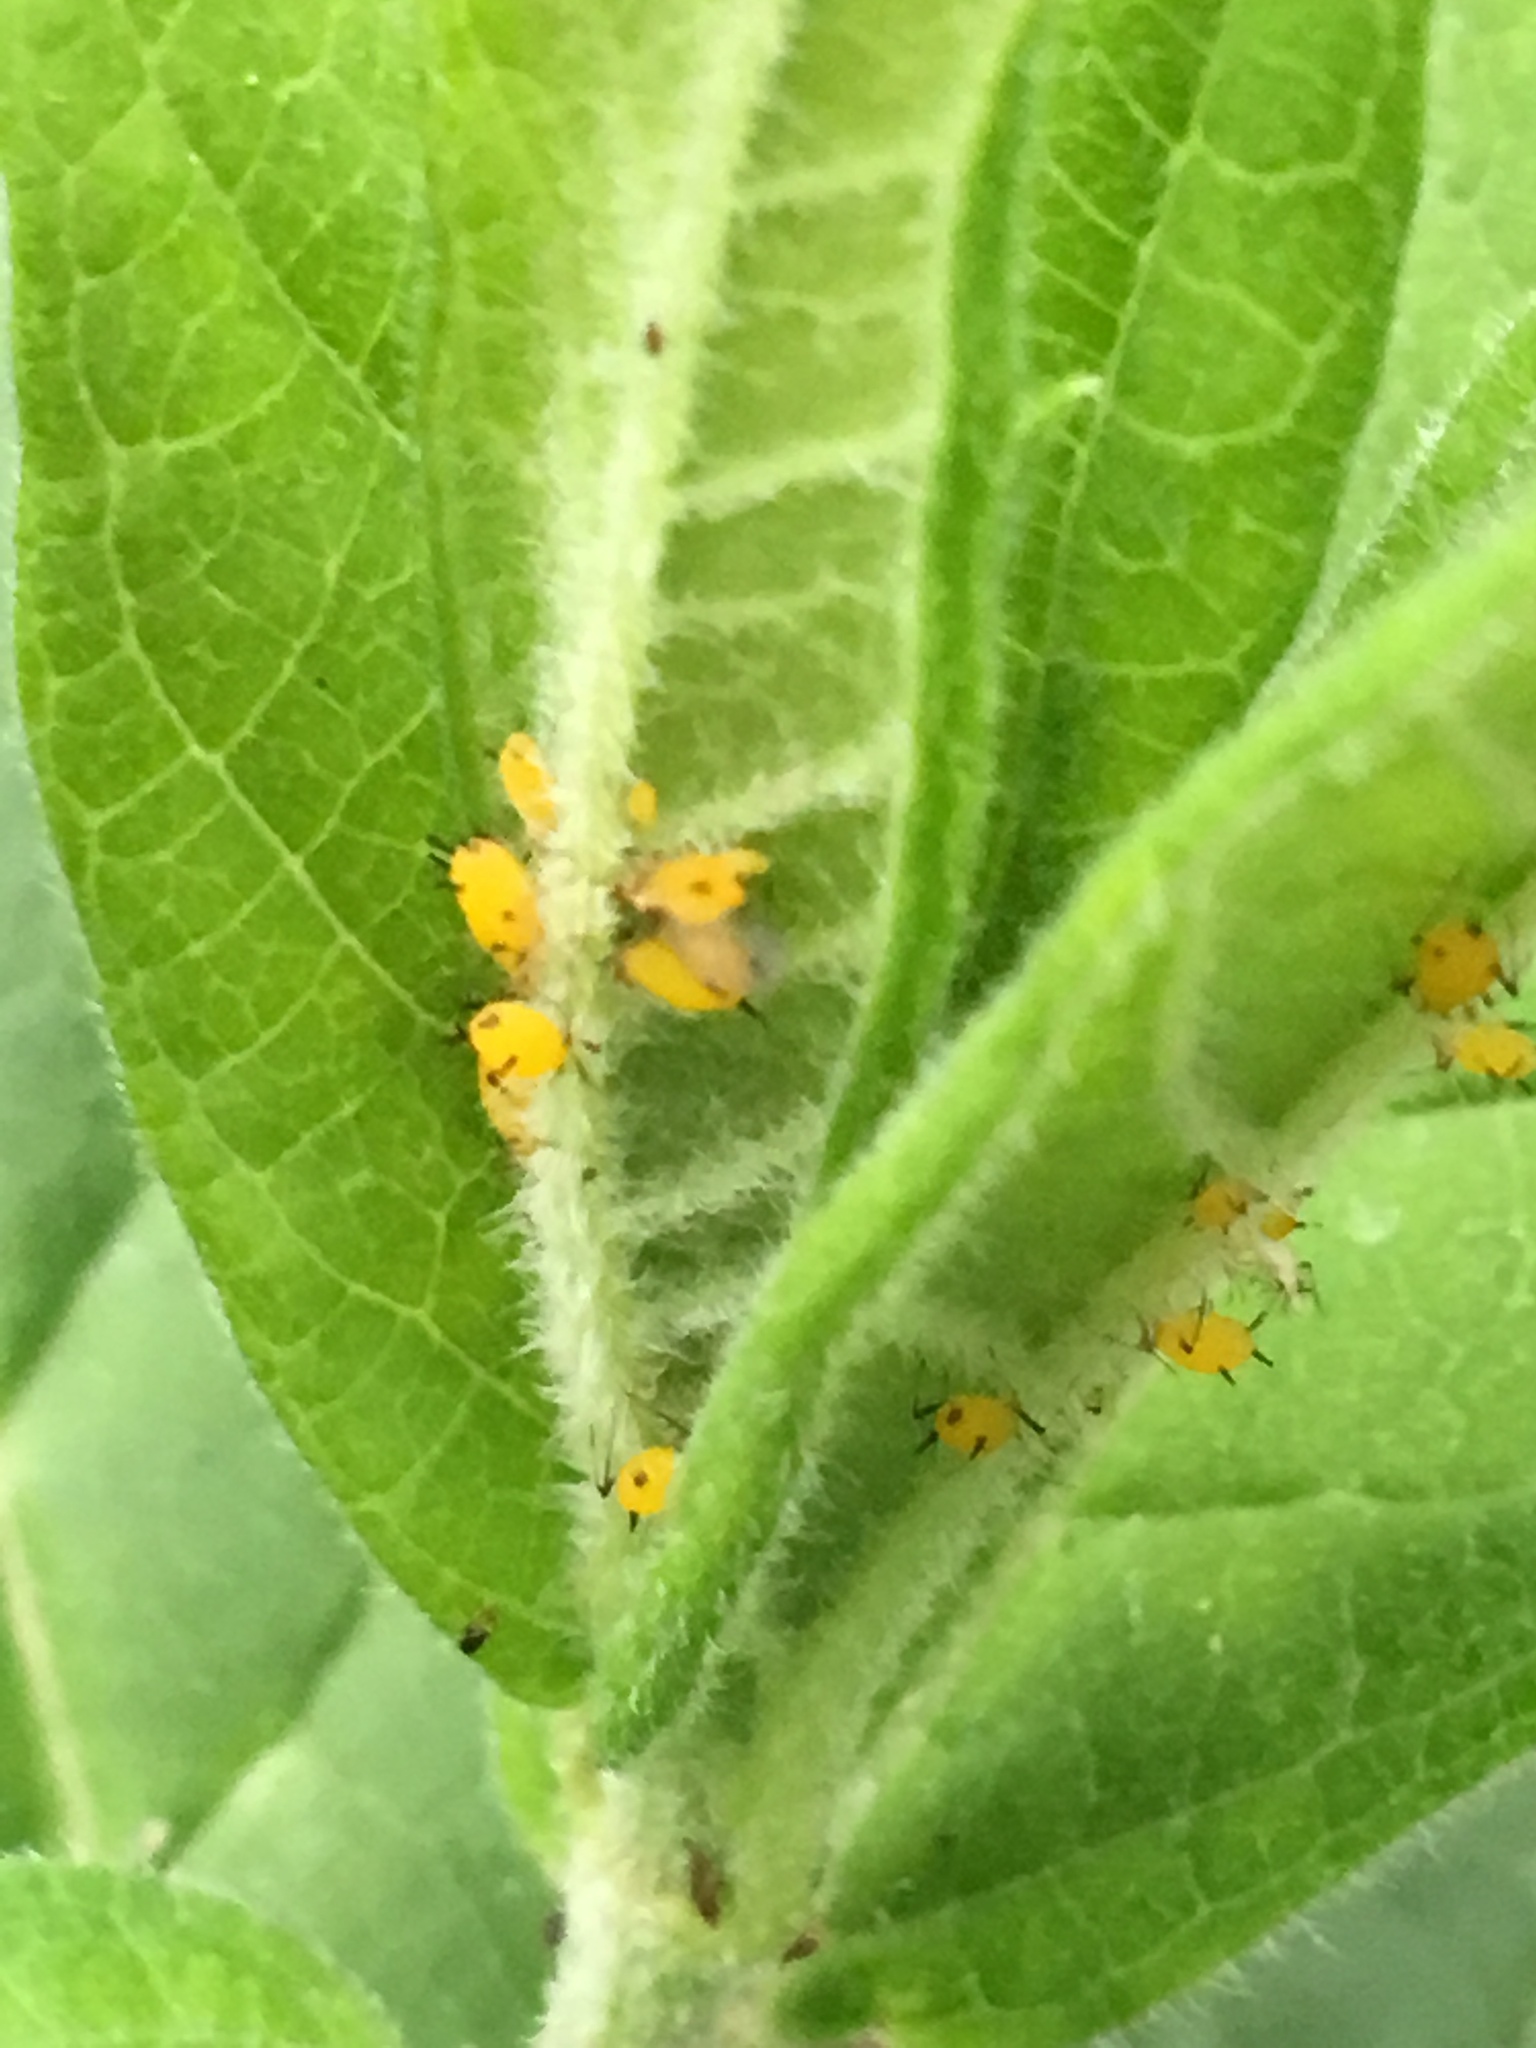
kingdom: Animalia
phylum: Arthropoda
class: Insecta
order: Hemiptera
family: Aphididae
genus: Aphis
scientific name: Aphis nerii
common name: Oleander aphid
